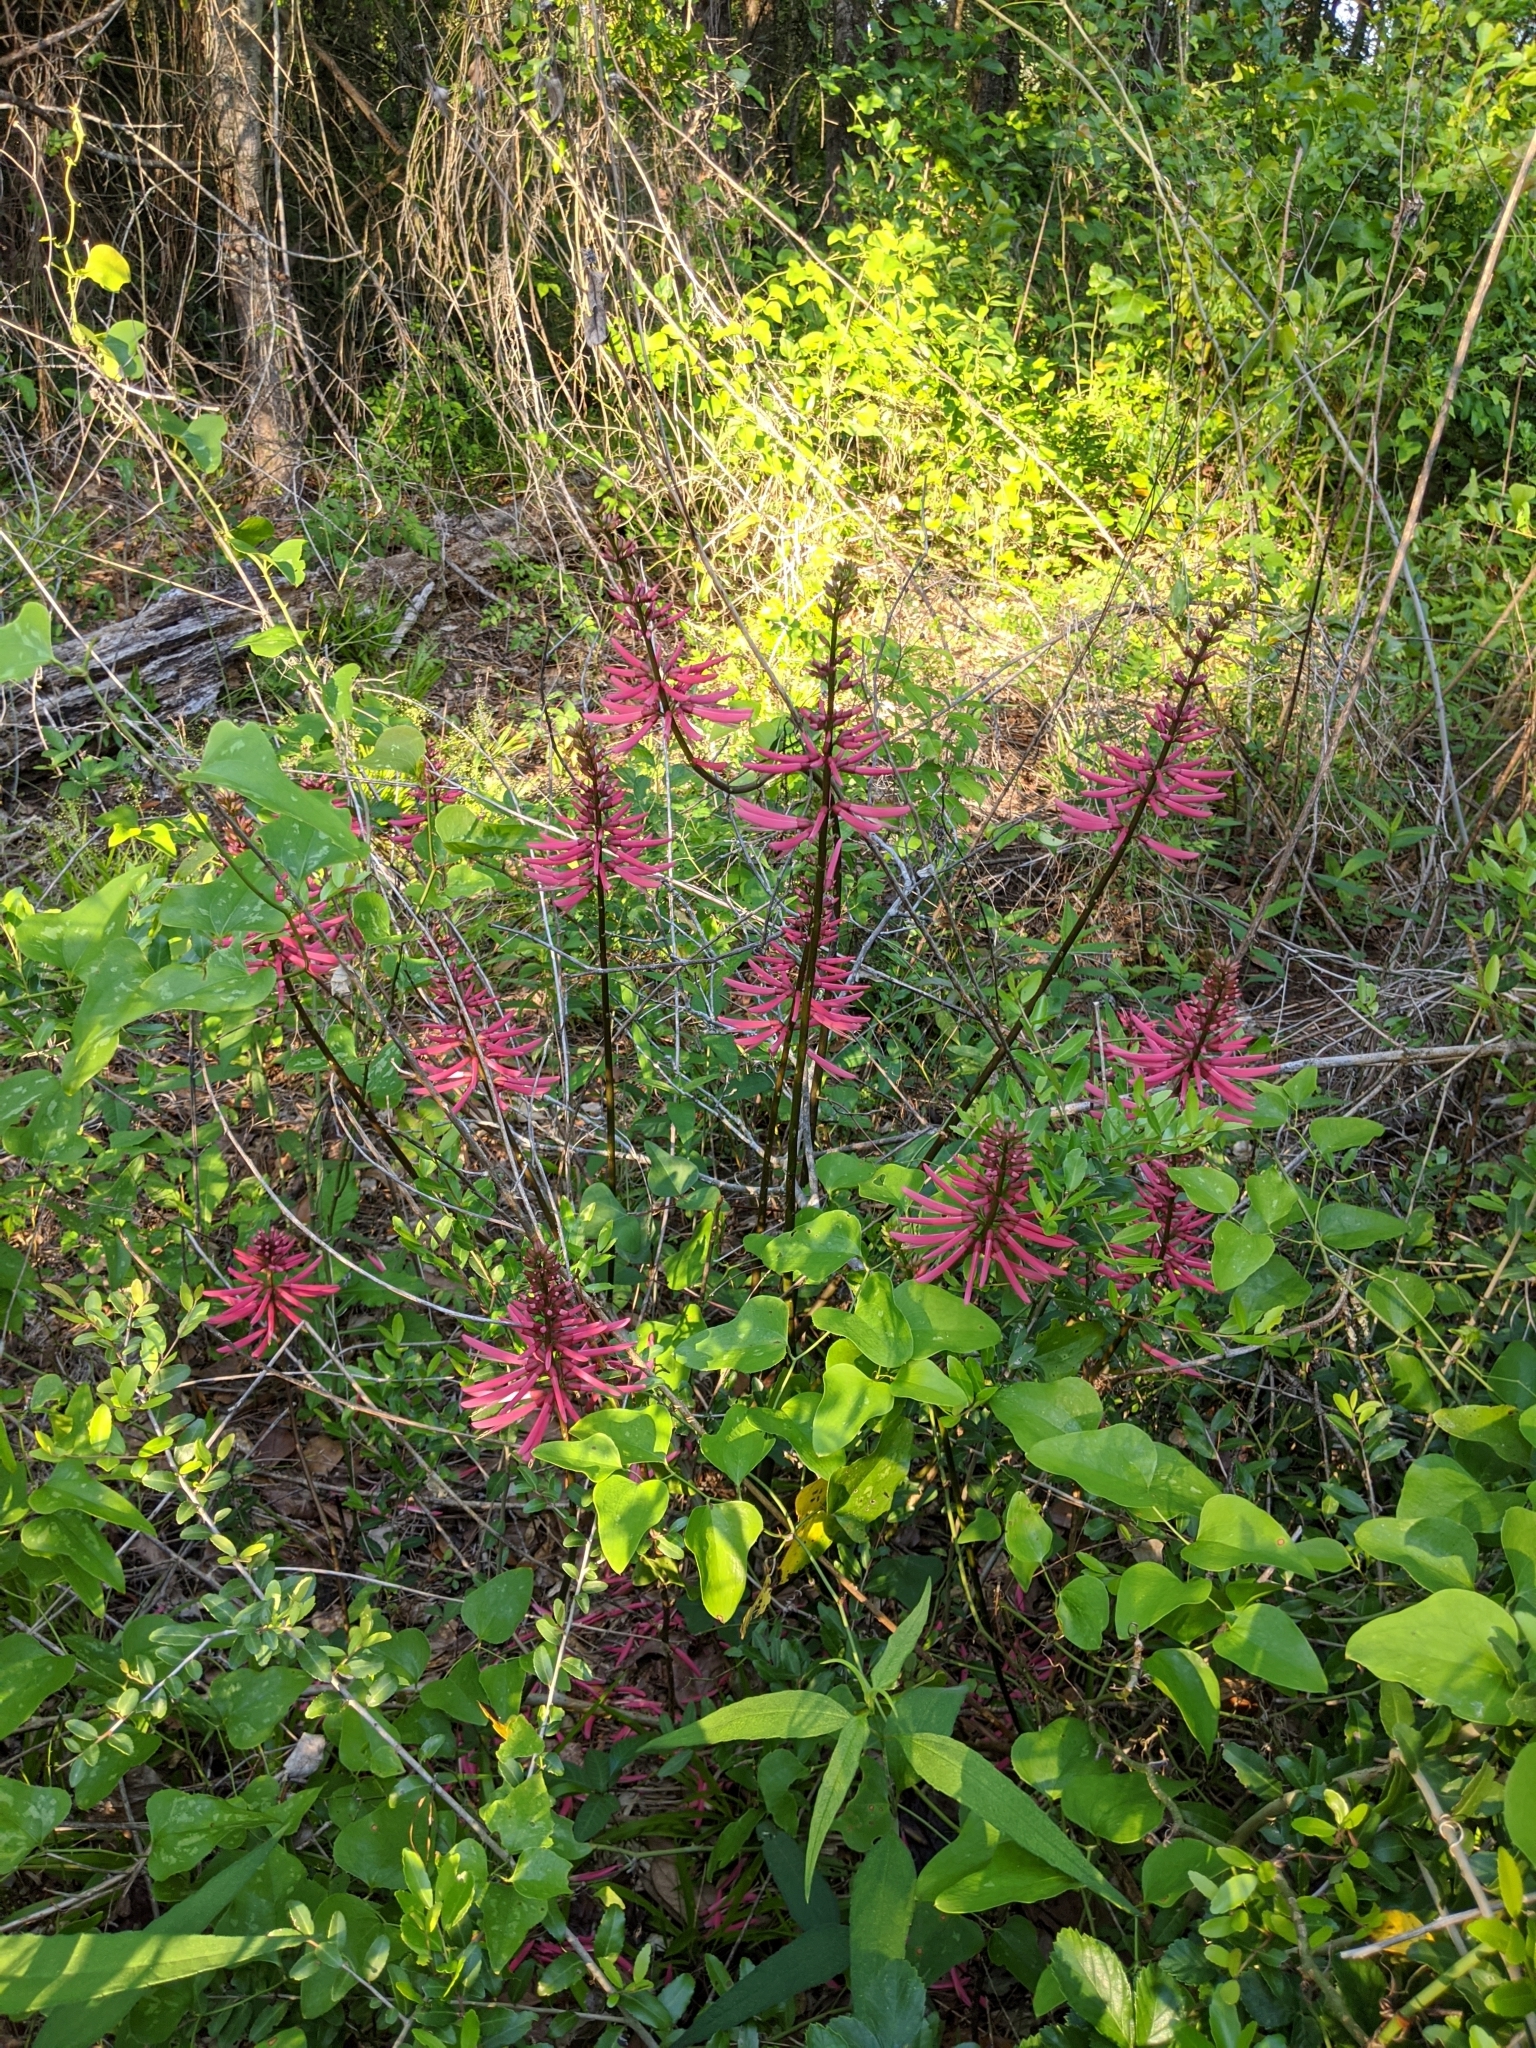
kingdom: Plantae
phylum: Tracheophyta
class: Magnoliopsida
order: Fabales
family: Fabaceae
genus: Erythrina
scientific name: Erythrina herbacea
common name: Coral-bean
